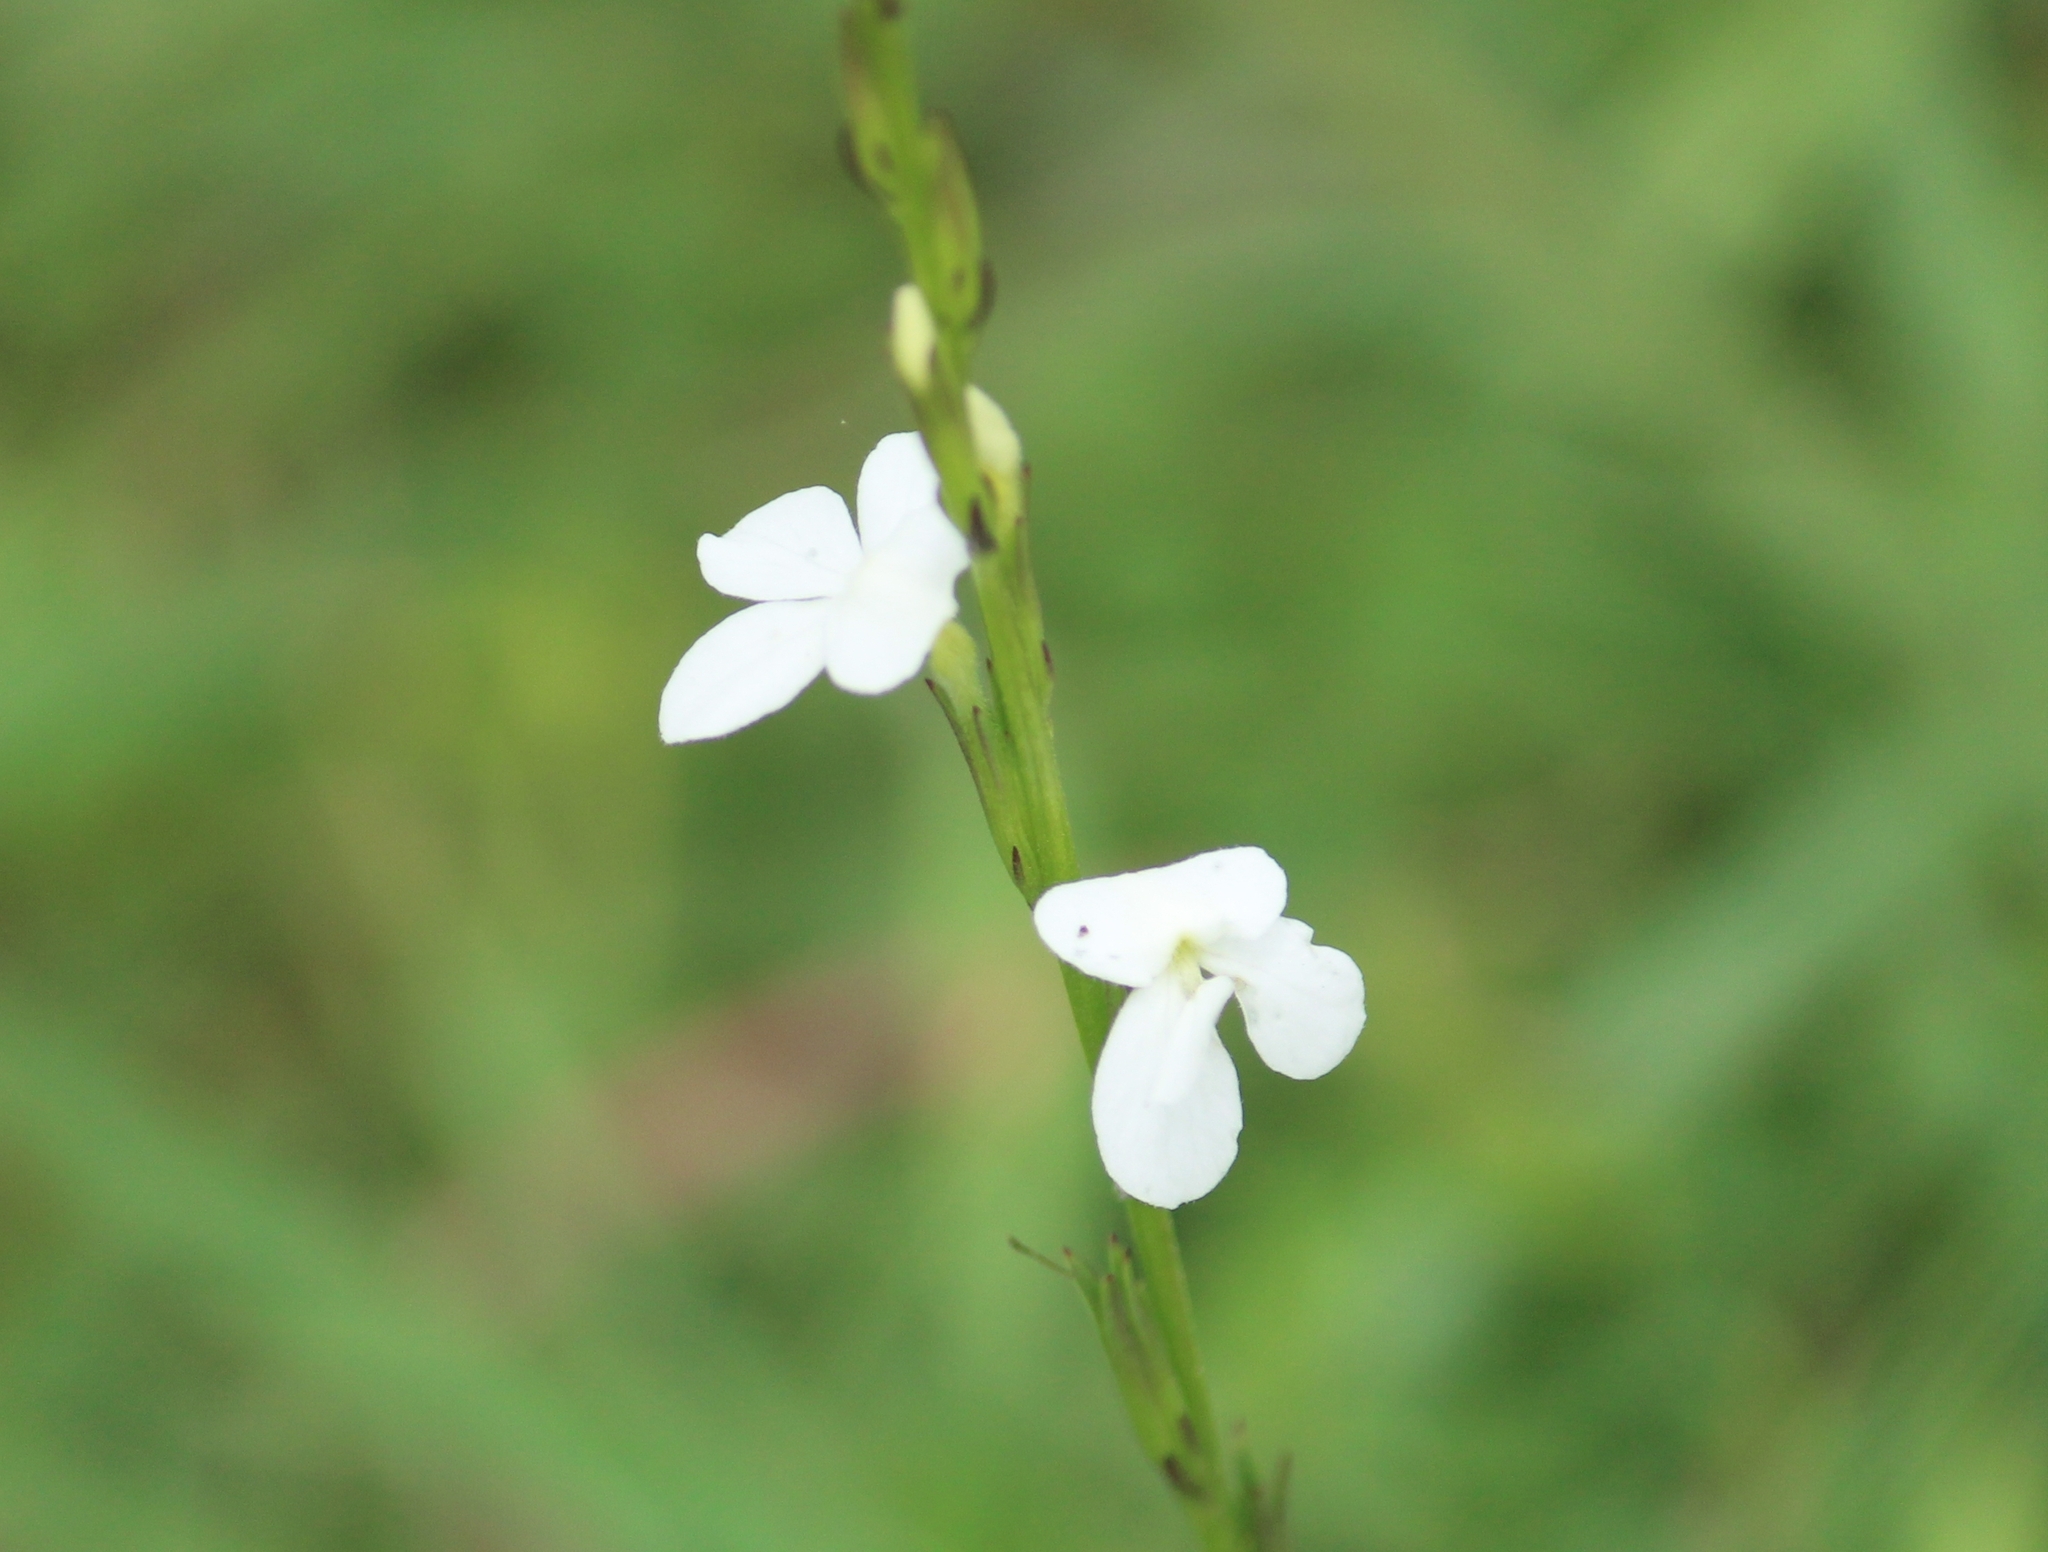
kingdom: Plantae
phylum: Tracheophyta
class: Magnoliopsida
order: Lamiales
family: Orobanchaceae
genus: Striga
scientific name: Striga densiflora
